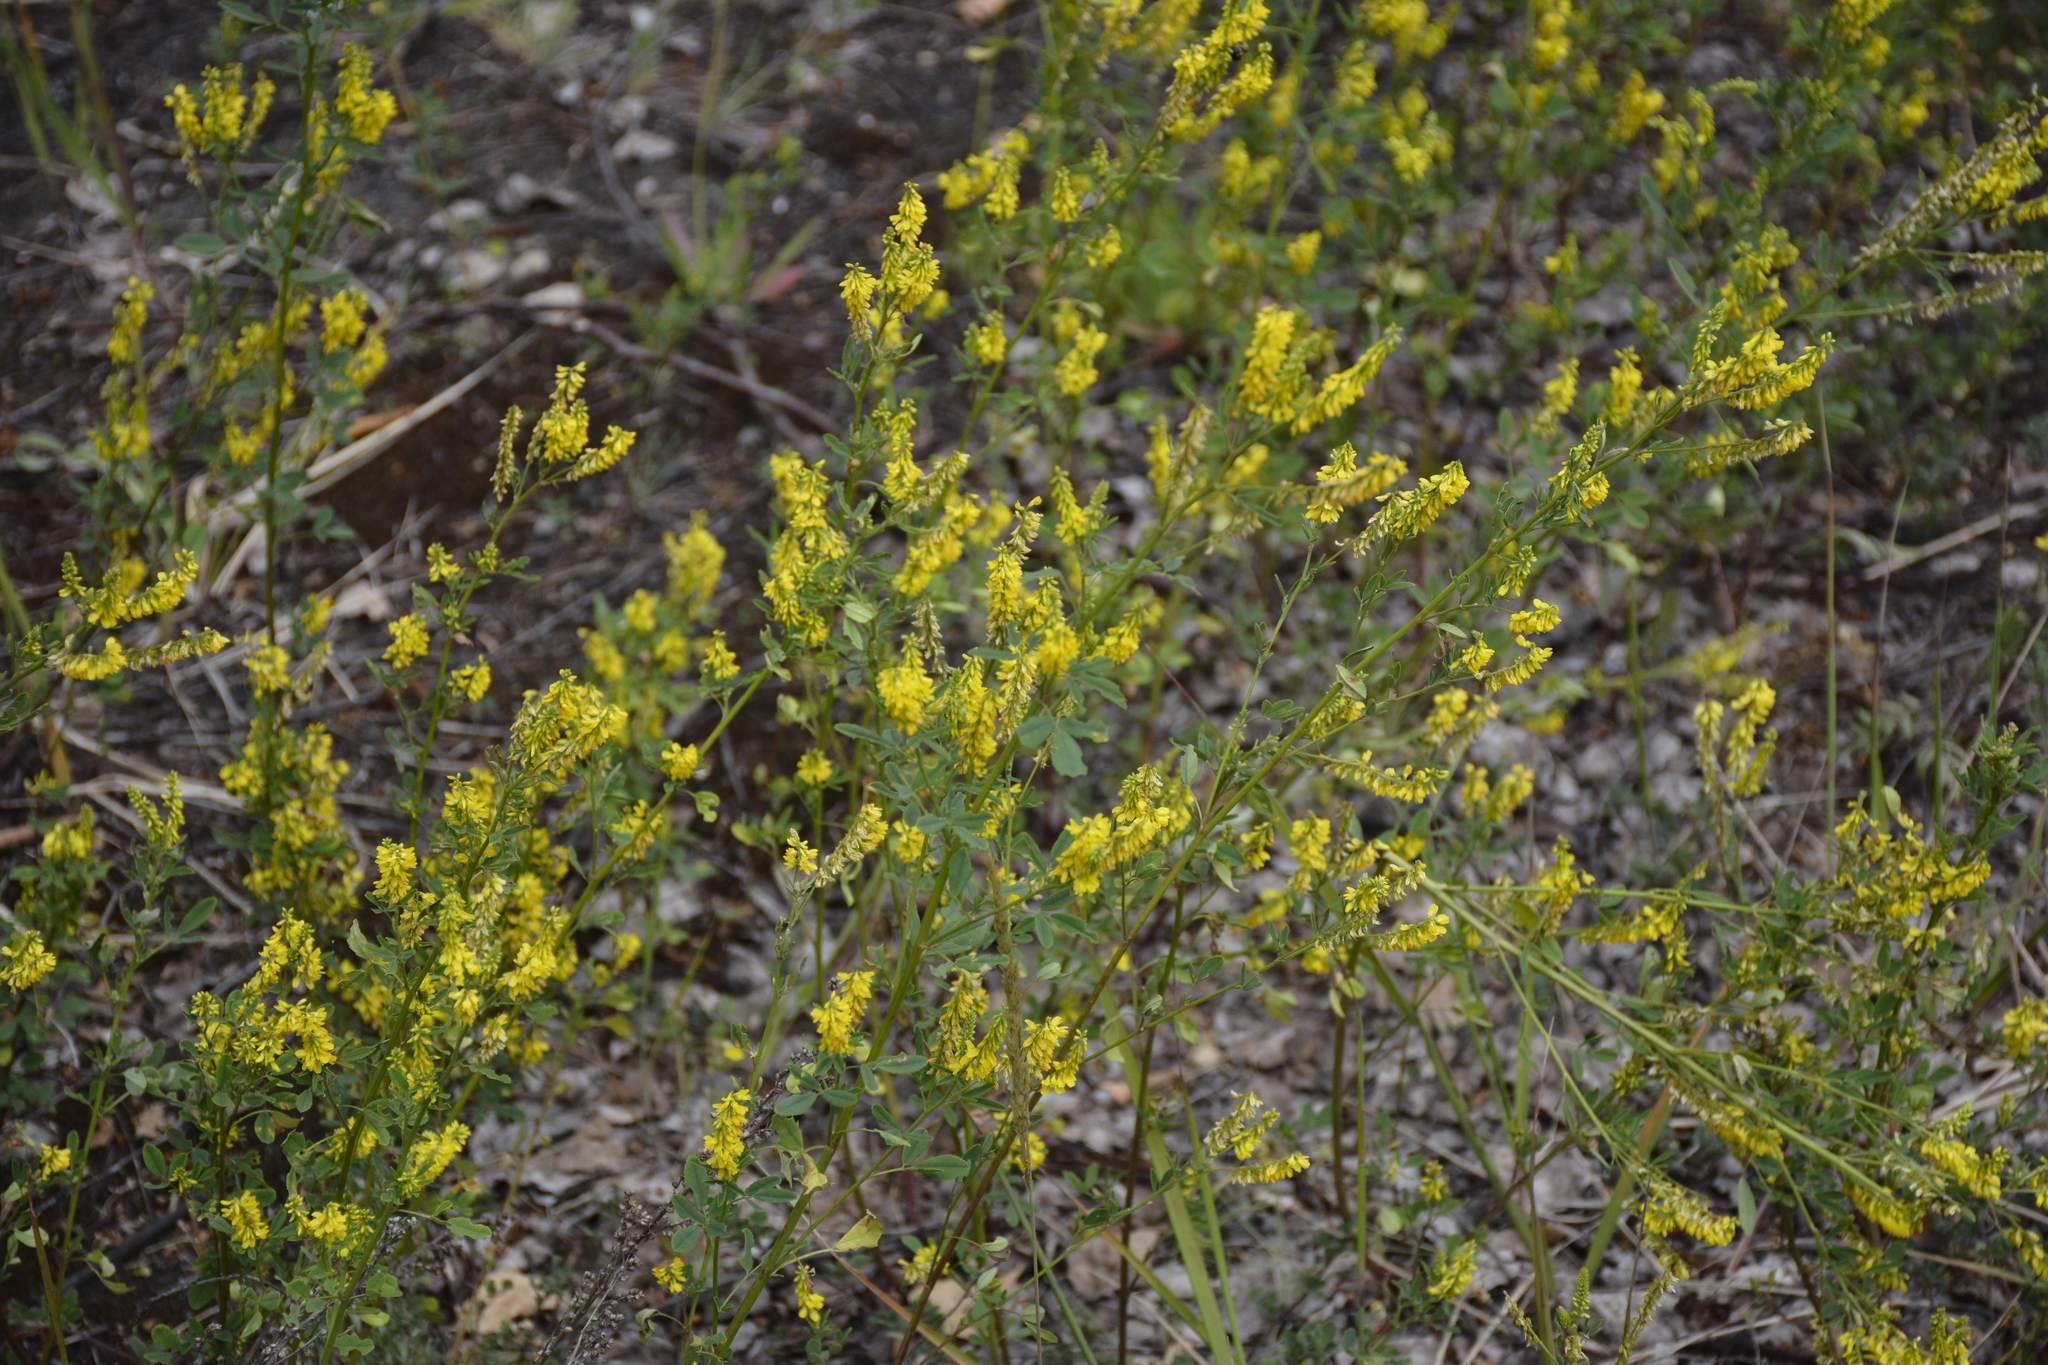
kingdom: Plantae
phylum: Tracheophyta
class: Magnoliopsida
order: Fabales
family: Fabaceae
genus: Melilotus
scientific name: Melilotus officinalis
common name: Sweetclover
